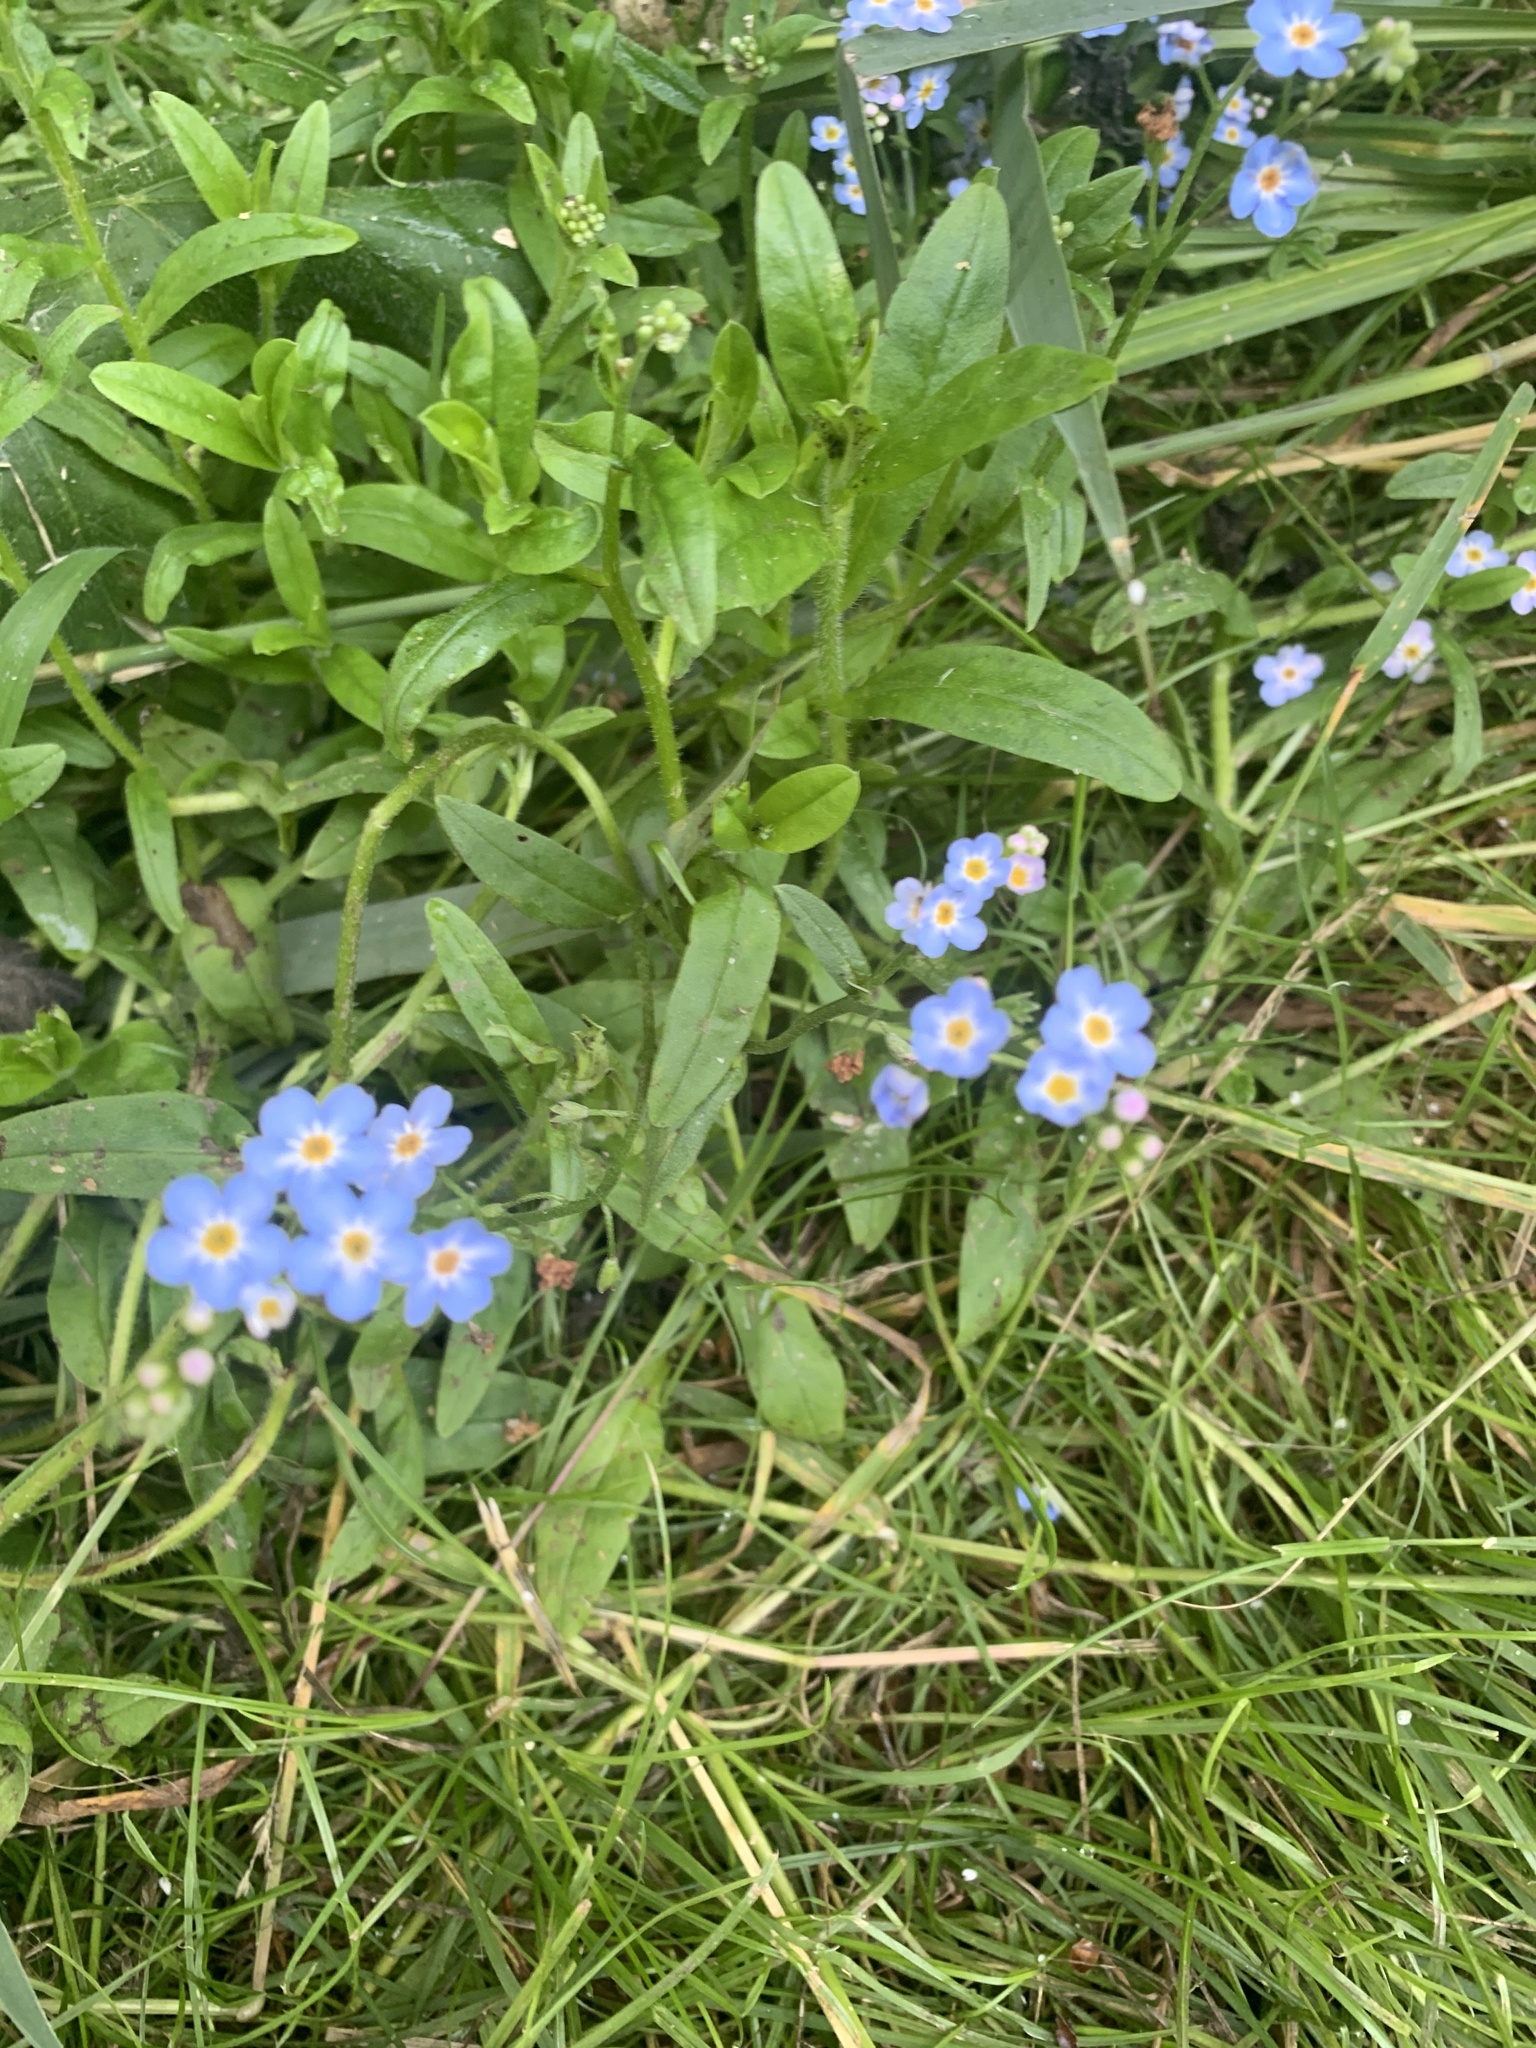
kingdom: Plantae
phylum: Tracheophyta
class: Magnoliopsida
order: Boraginales
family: Boraginaceae
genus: Myosotis
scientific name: Myosotis scorpioides
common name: Water forget-me-not
